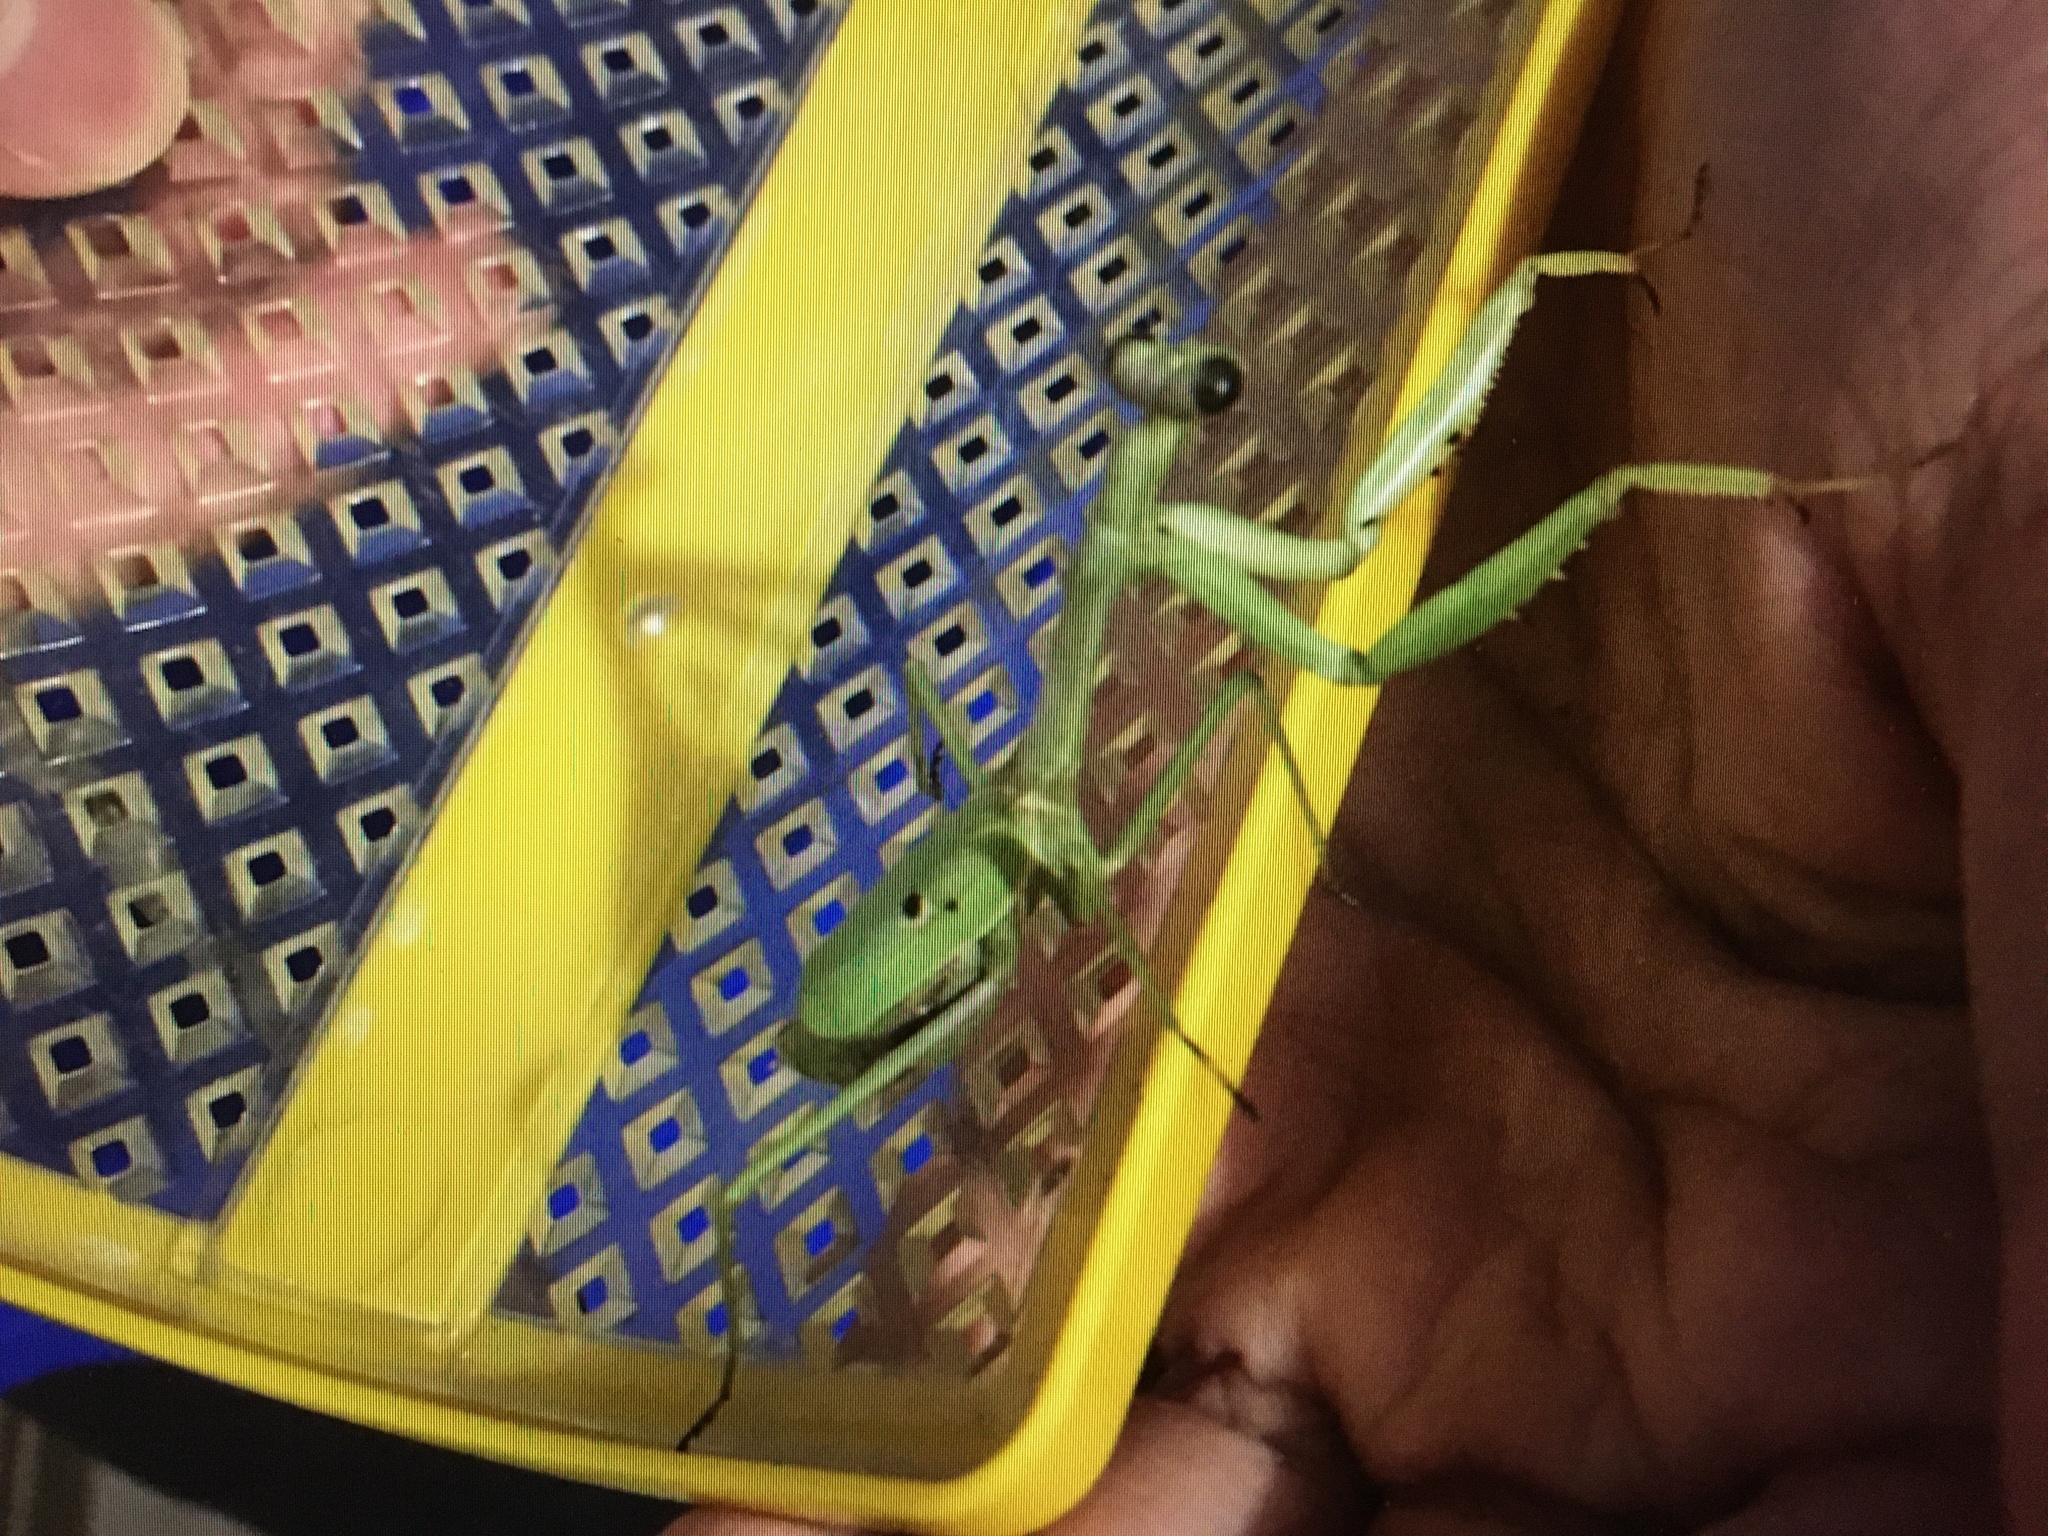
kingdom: Animalia
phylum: Arthropoda
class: Insecta
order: Mantodea
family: Mantidae
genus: Stagmomantis
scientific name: Stagmomantis carolina
